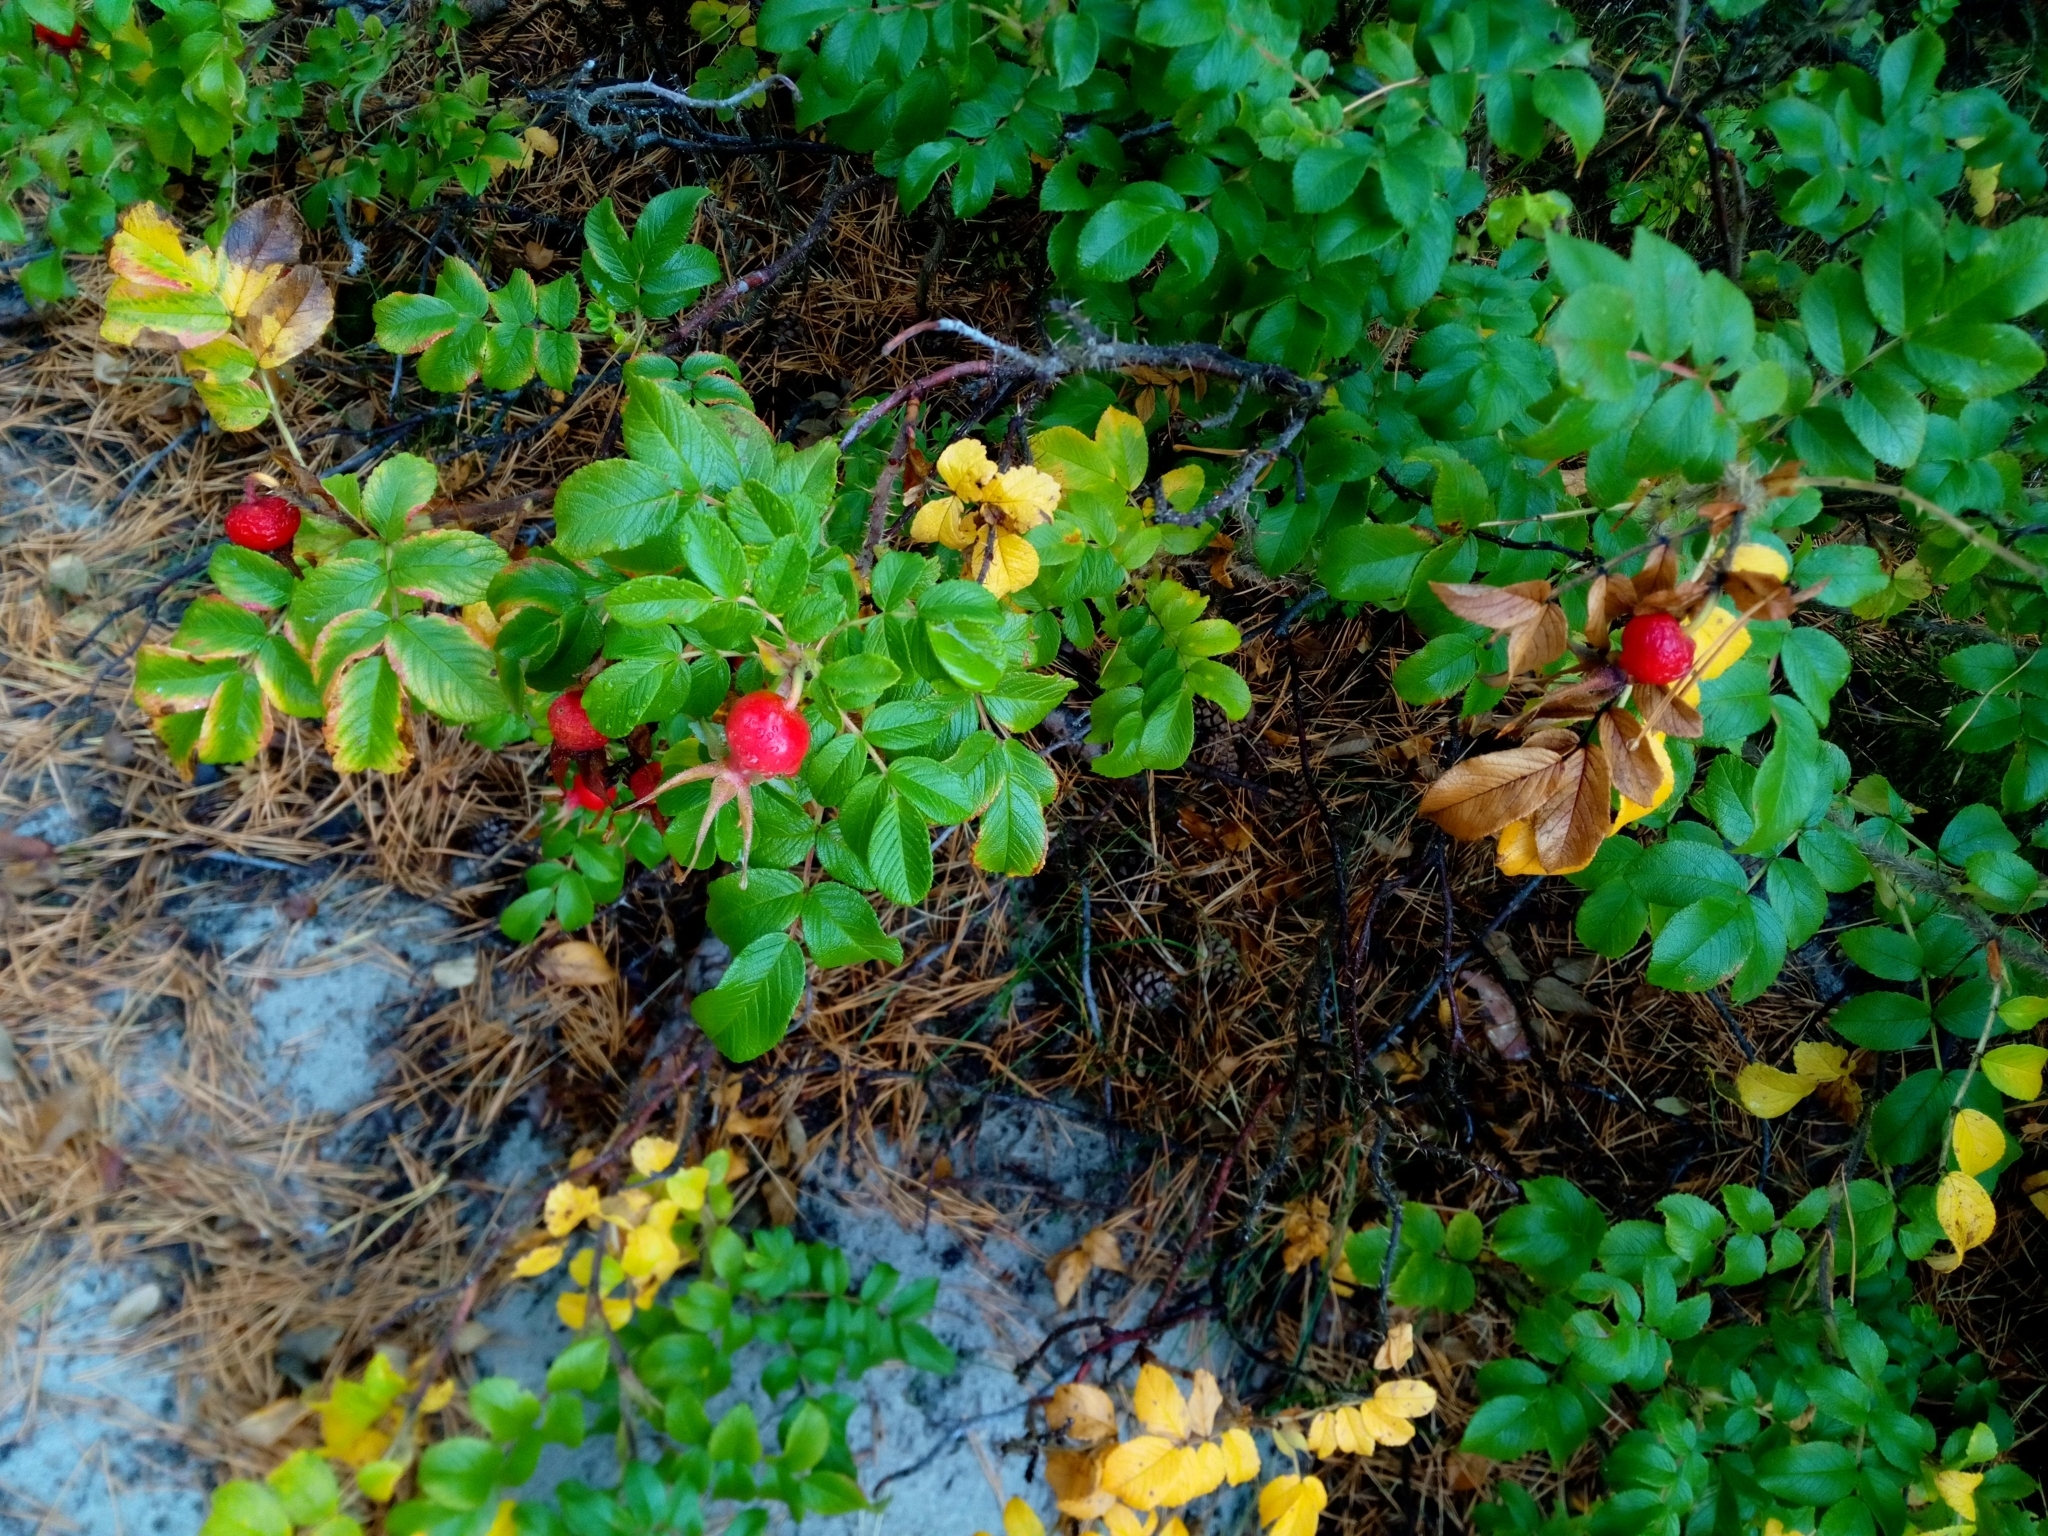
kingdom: Plantae
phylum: Tracheophyta
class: Magnoliopsida
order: Rosales
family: Rosaceae
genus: Rosa
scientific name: Rosa rugosa
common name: Japanese rose
